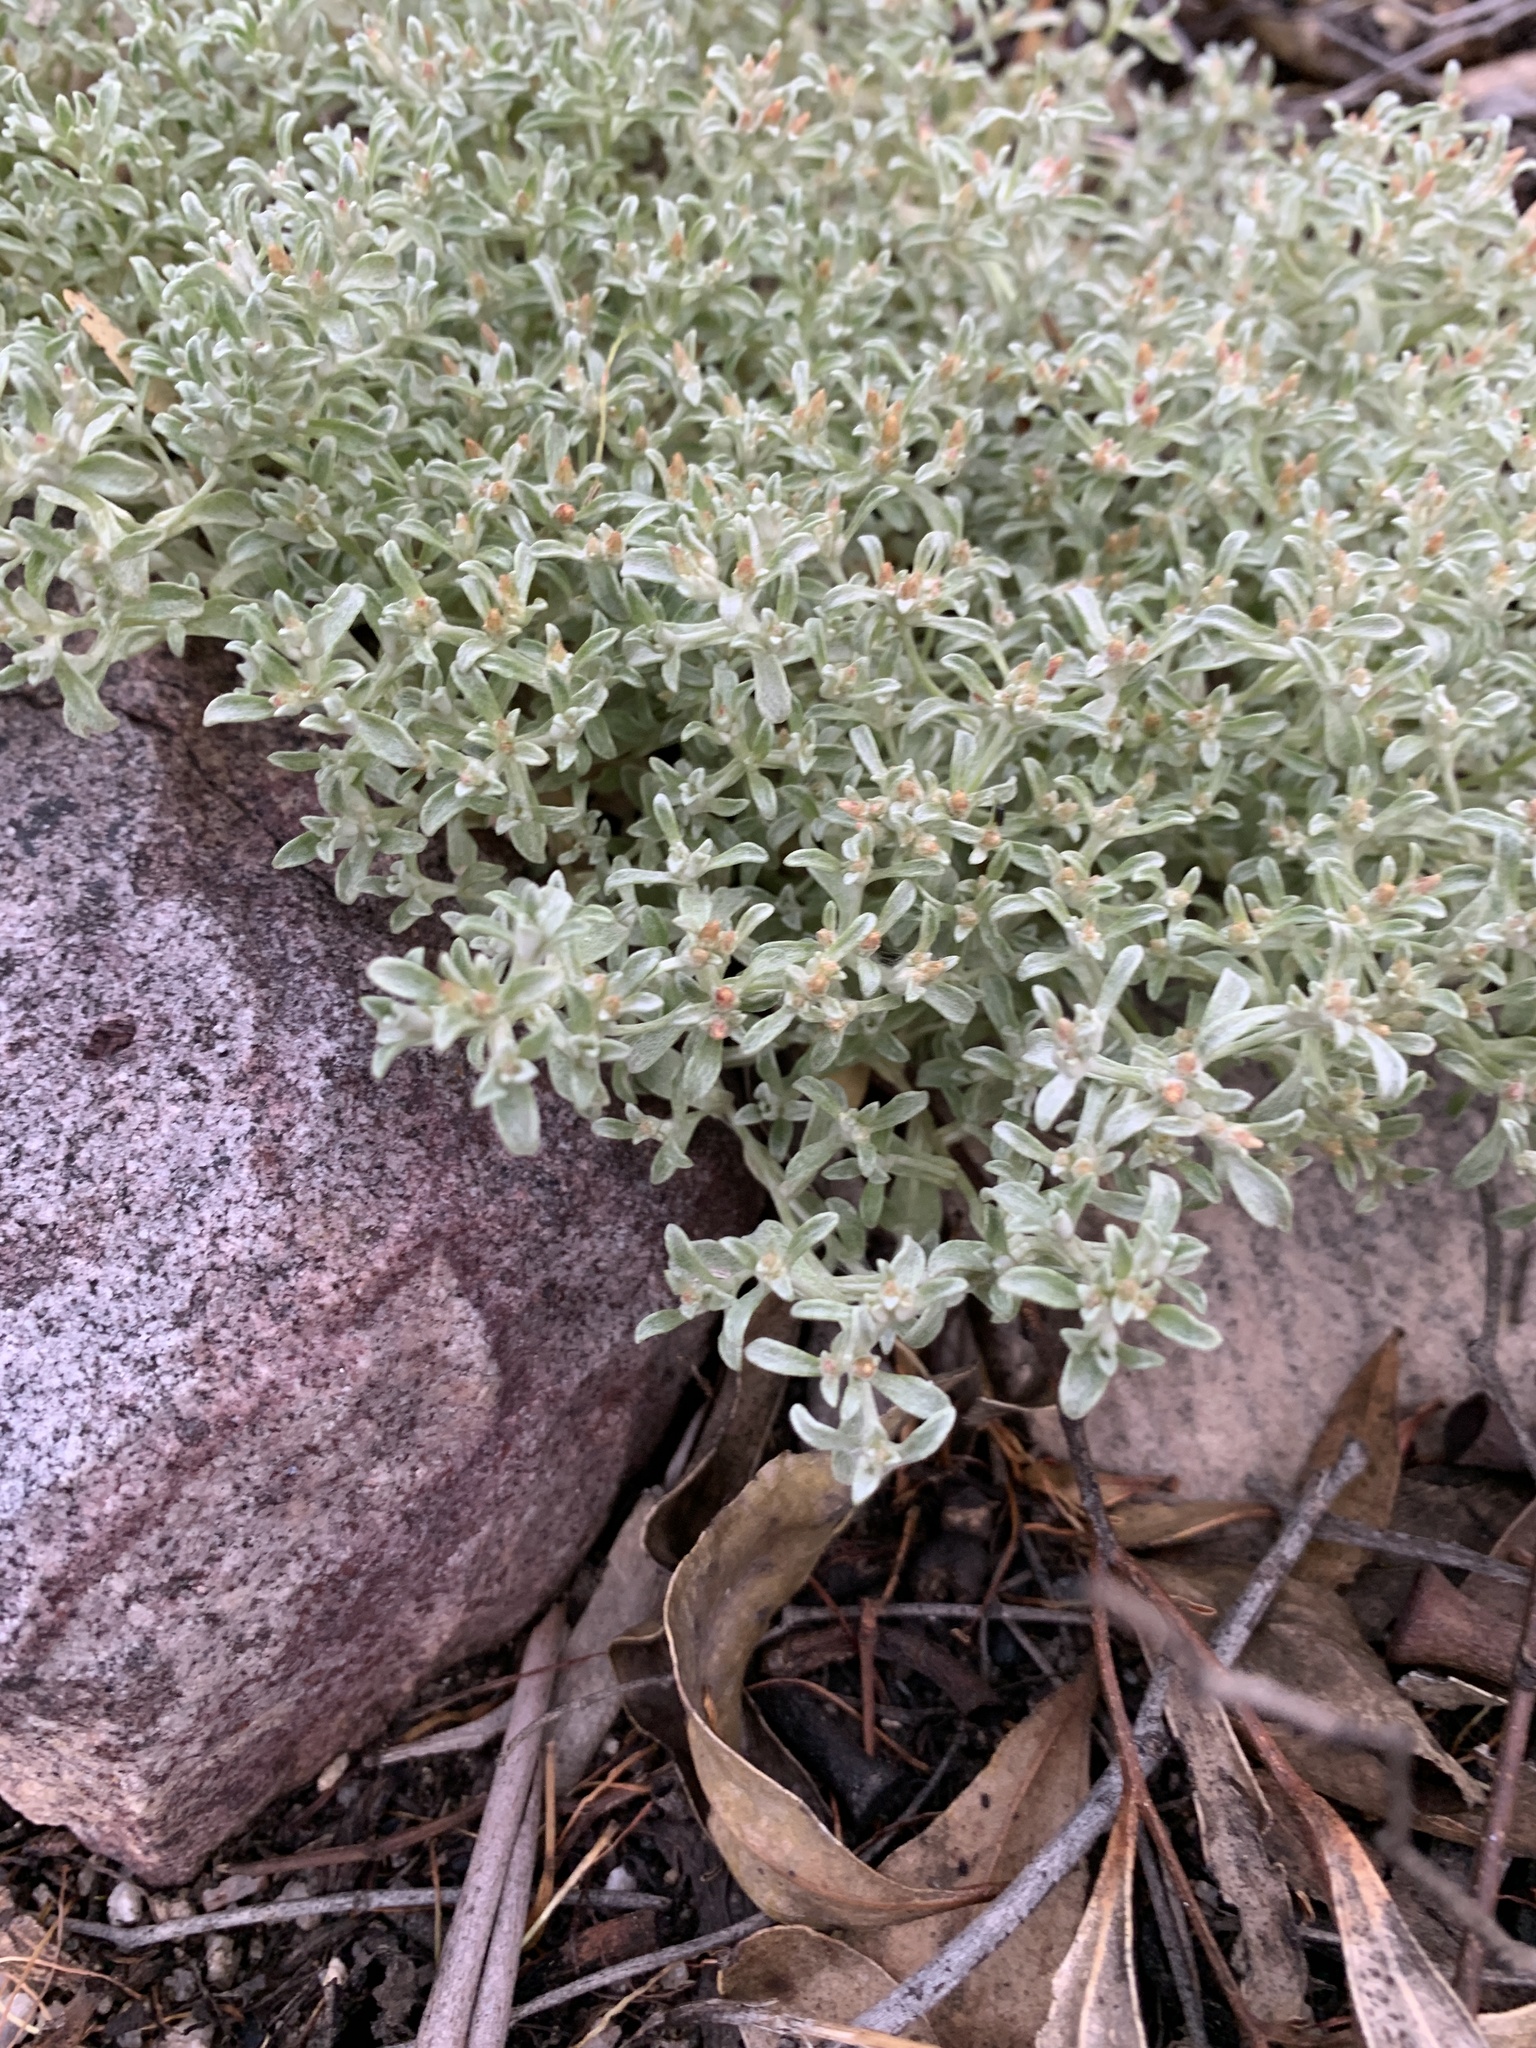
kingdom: Plantae
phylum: Tracheophyta
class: Magnoliopsida
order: Asterales
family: Asteraceae
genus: Helichrysum
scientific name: Helichrysum tinctum
